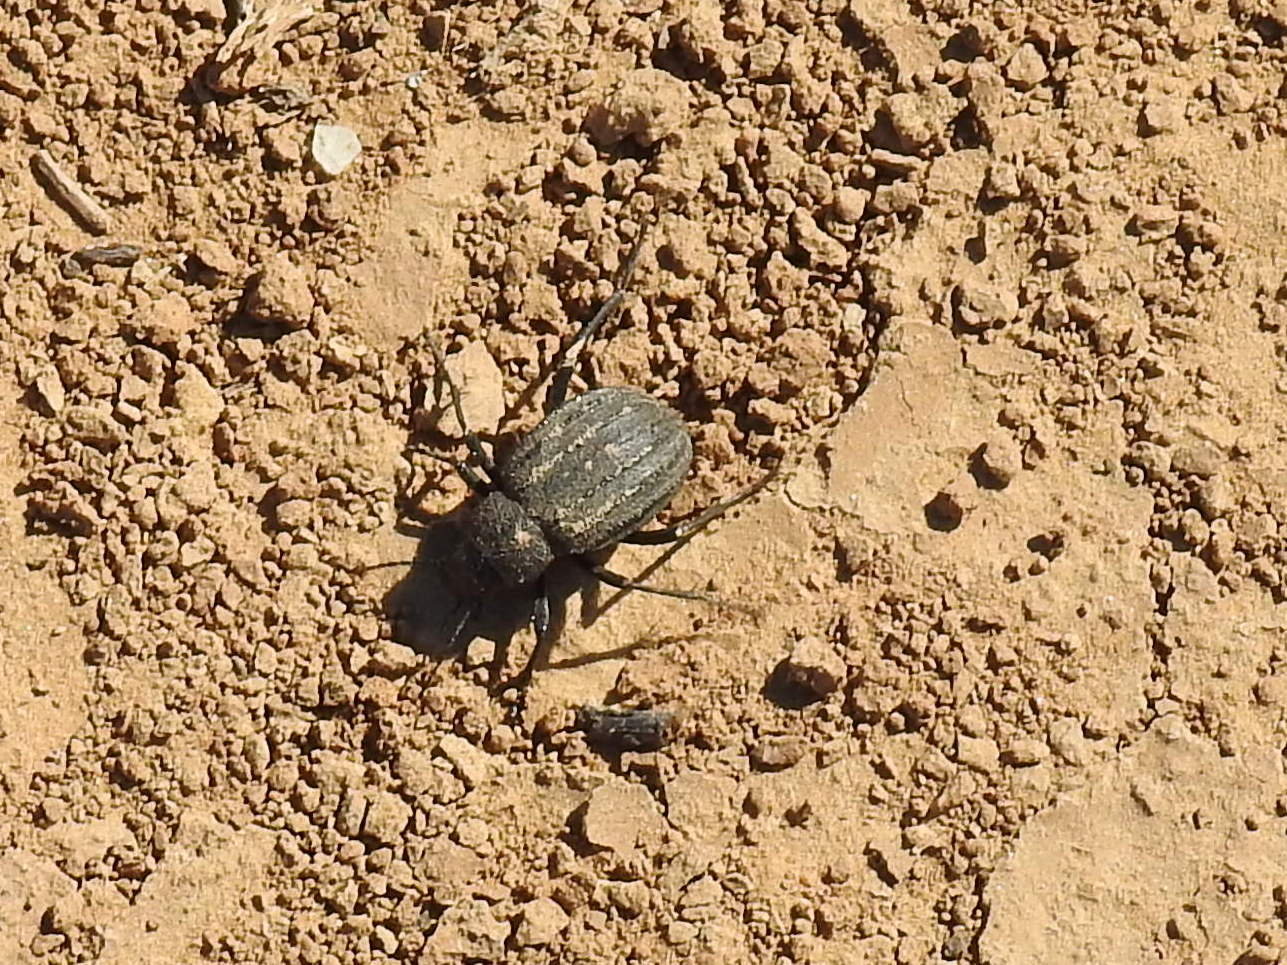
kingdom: Animalia
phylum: Arthropoda
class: Insecta
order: Coleoptera
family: Tenebrionidae
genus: Lasiostola
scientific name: Lasiostola pubescens
